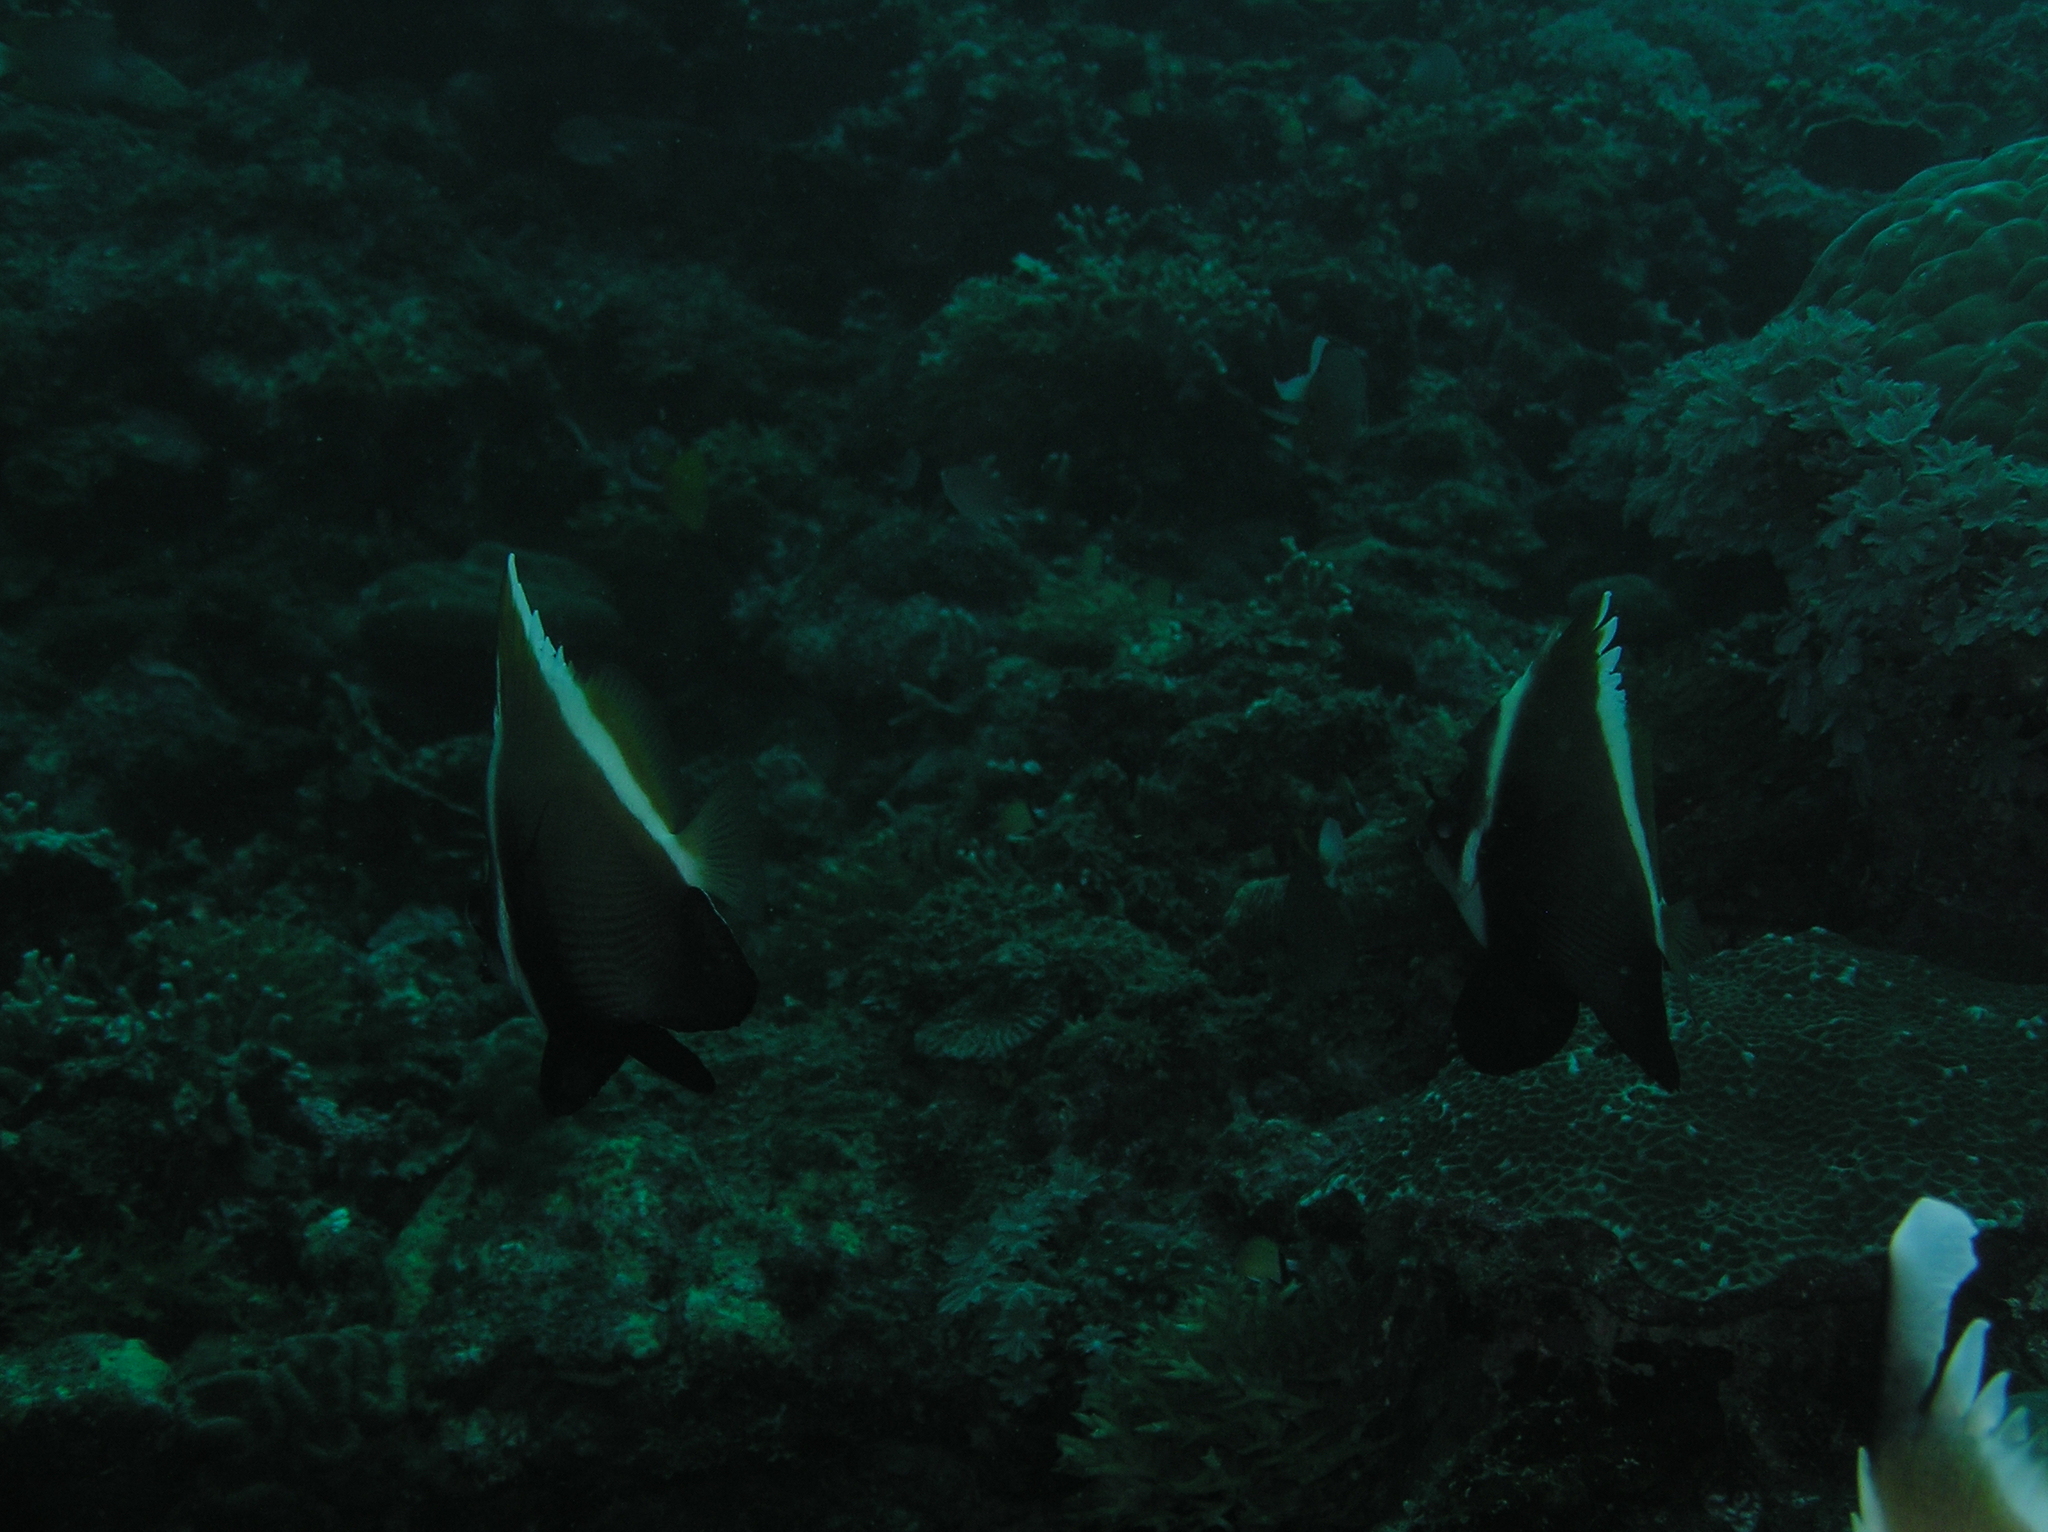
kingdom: Animalia
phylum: Chordata
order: Perciformes
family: Chaetodontidae
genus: Heniochus
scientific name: Heniochus varius
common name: Horned bannerfish
